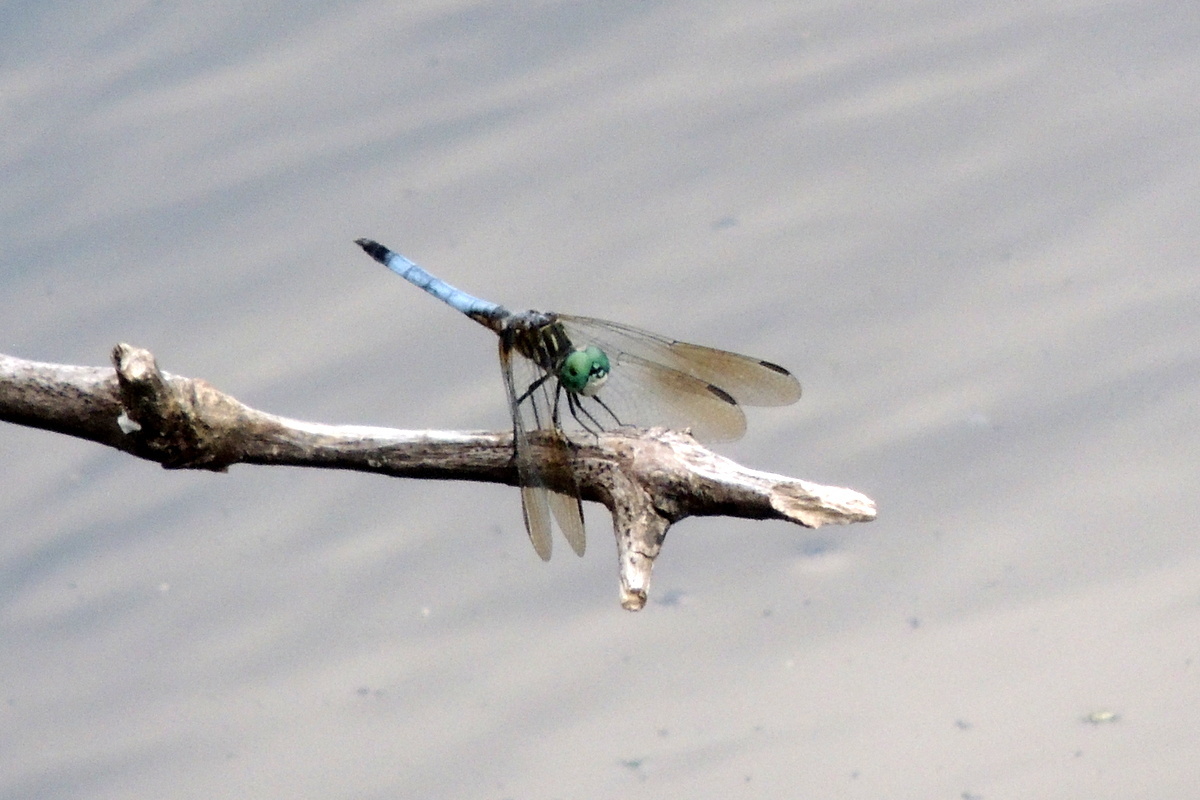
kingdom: Animalia
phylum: Arthropoda
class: Insecta
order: Odonata
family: Libellulidae
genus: Pachydiplax
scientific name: Pachydiplax longipennis
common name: Blue dasher
